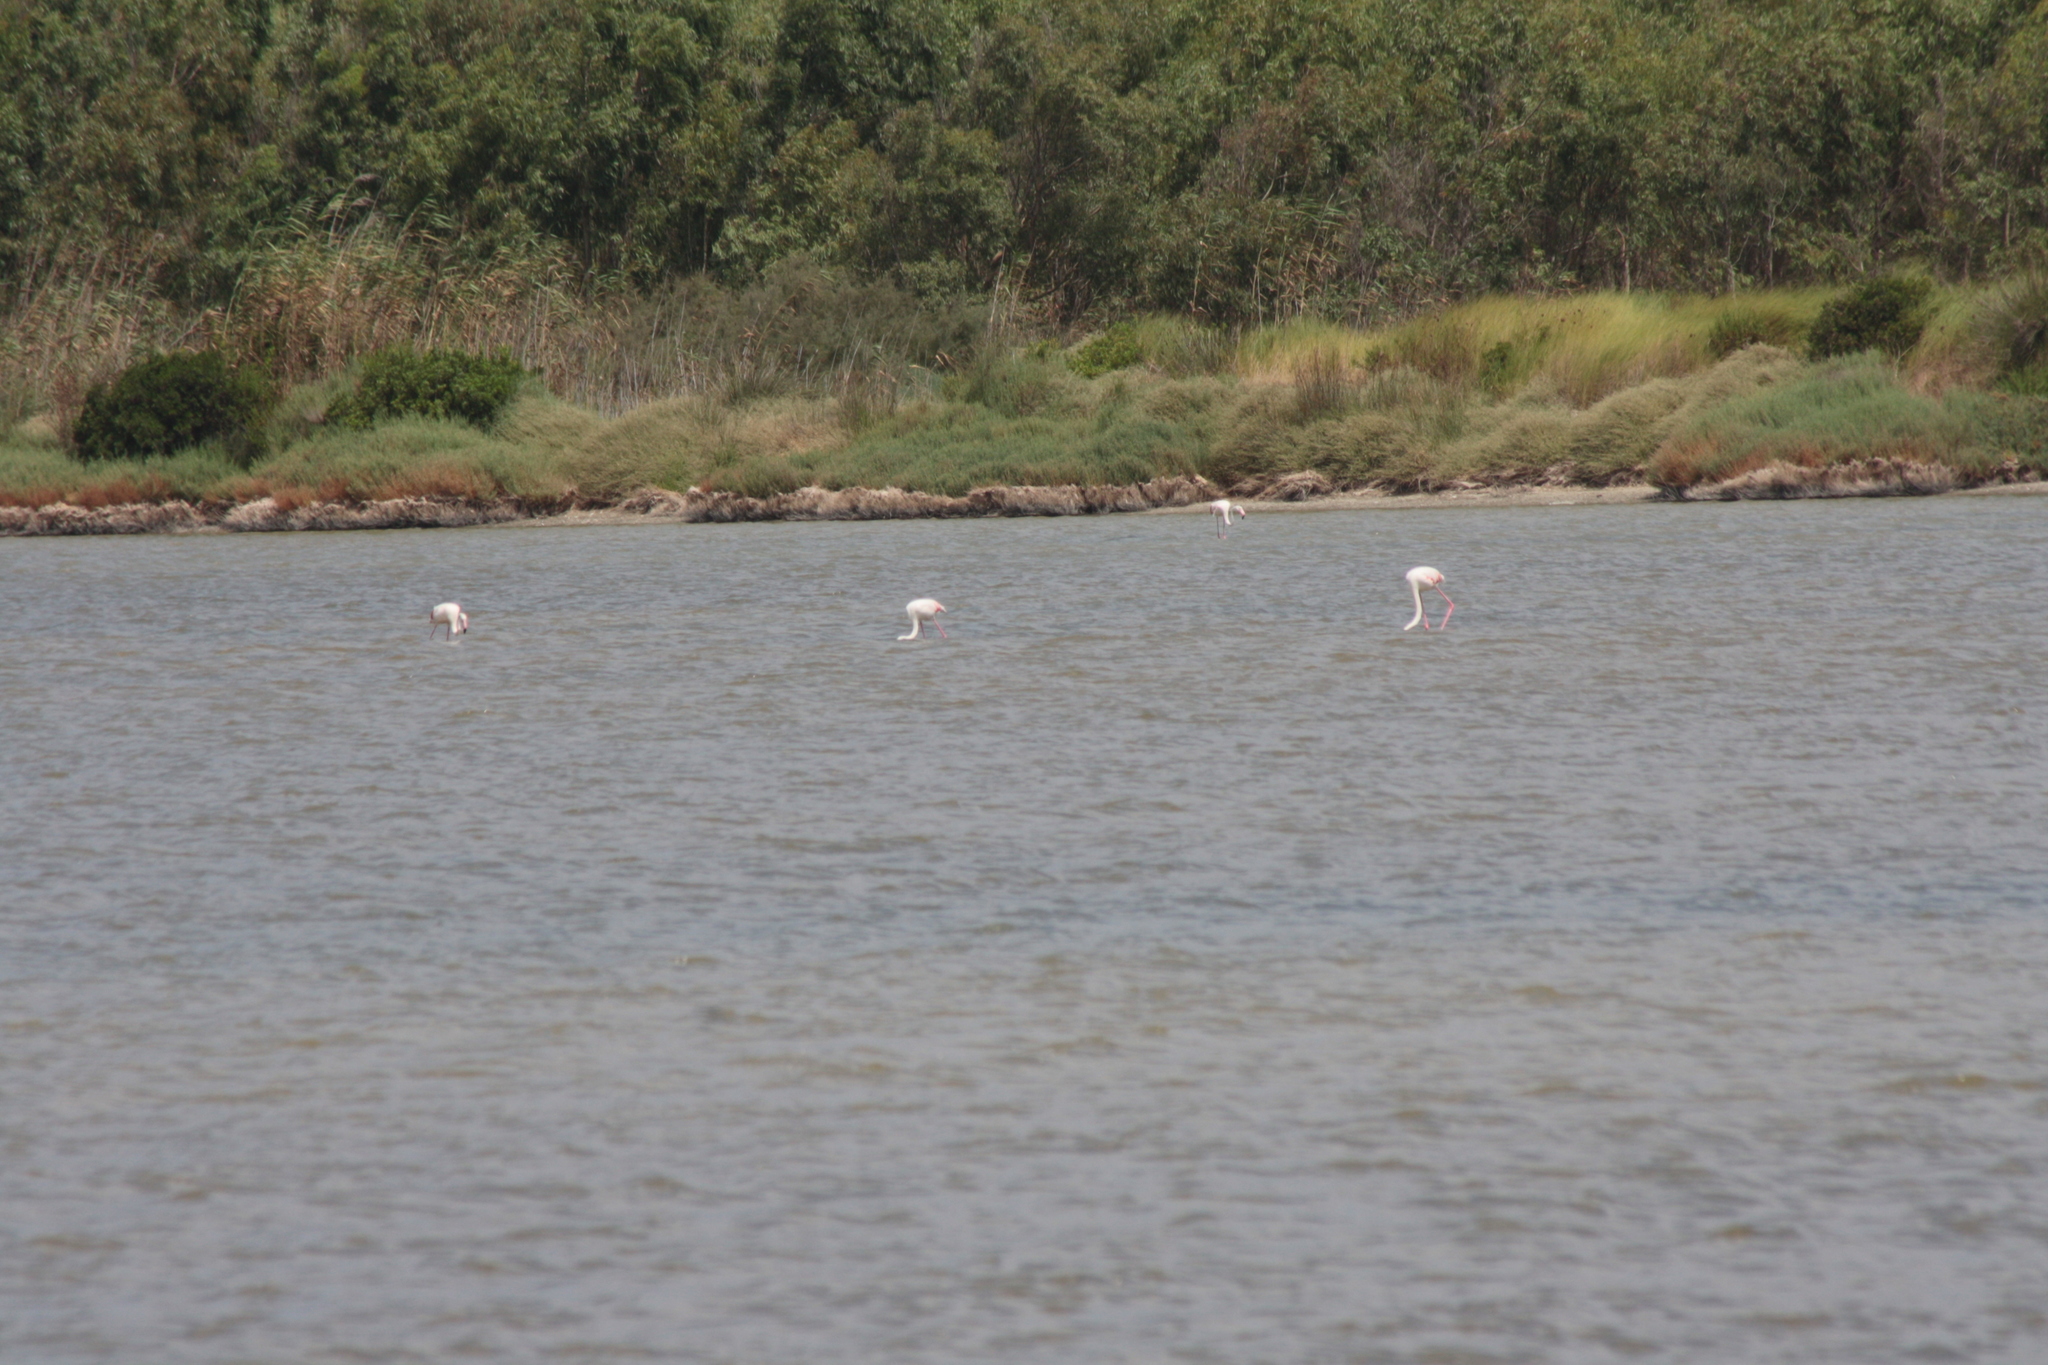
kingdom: Animalia
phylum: Chordata
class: Aves
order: Phoenicopteriformes
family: Phoenicopteridae
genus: Phoenicopterus
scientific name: Phoenicopterus roseus
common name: Greater flamingo
